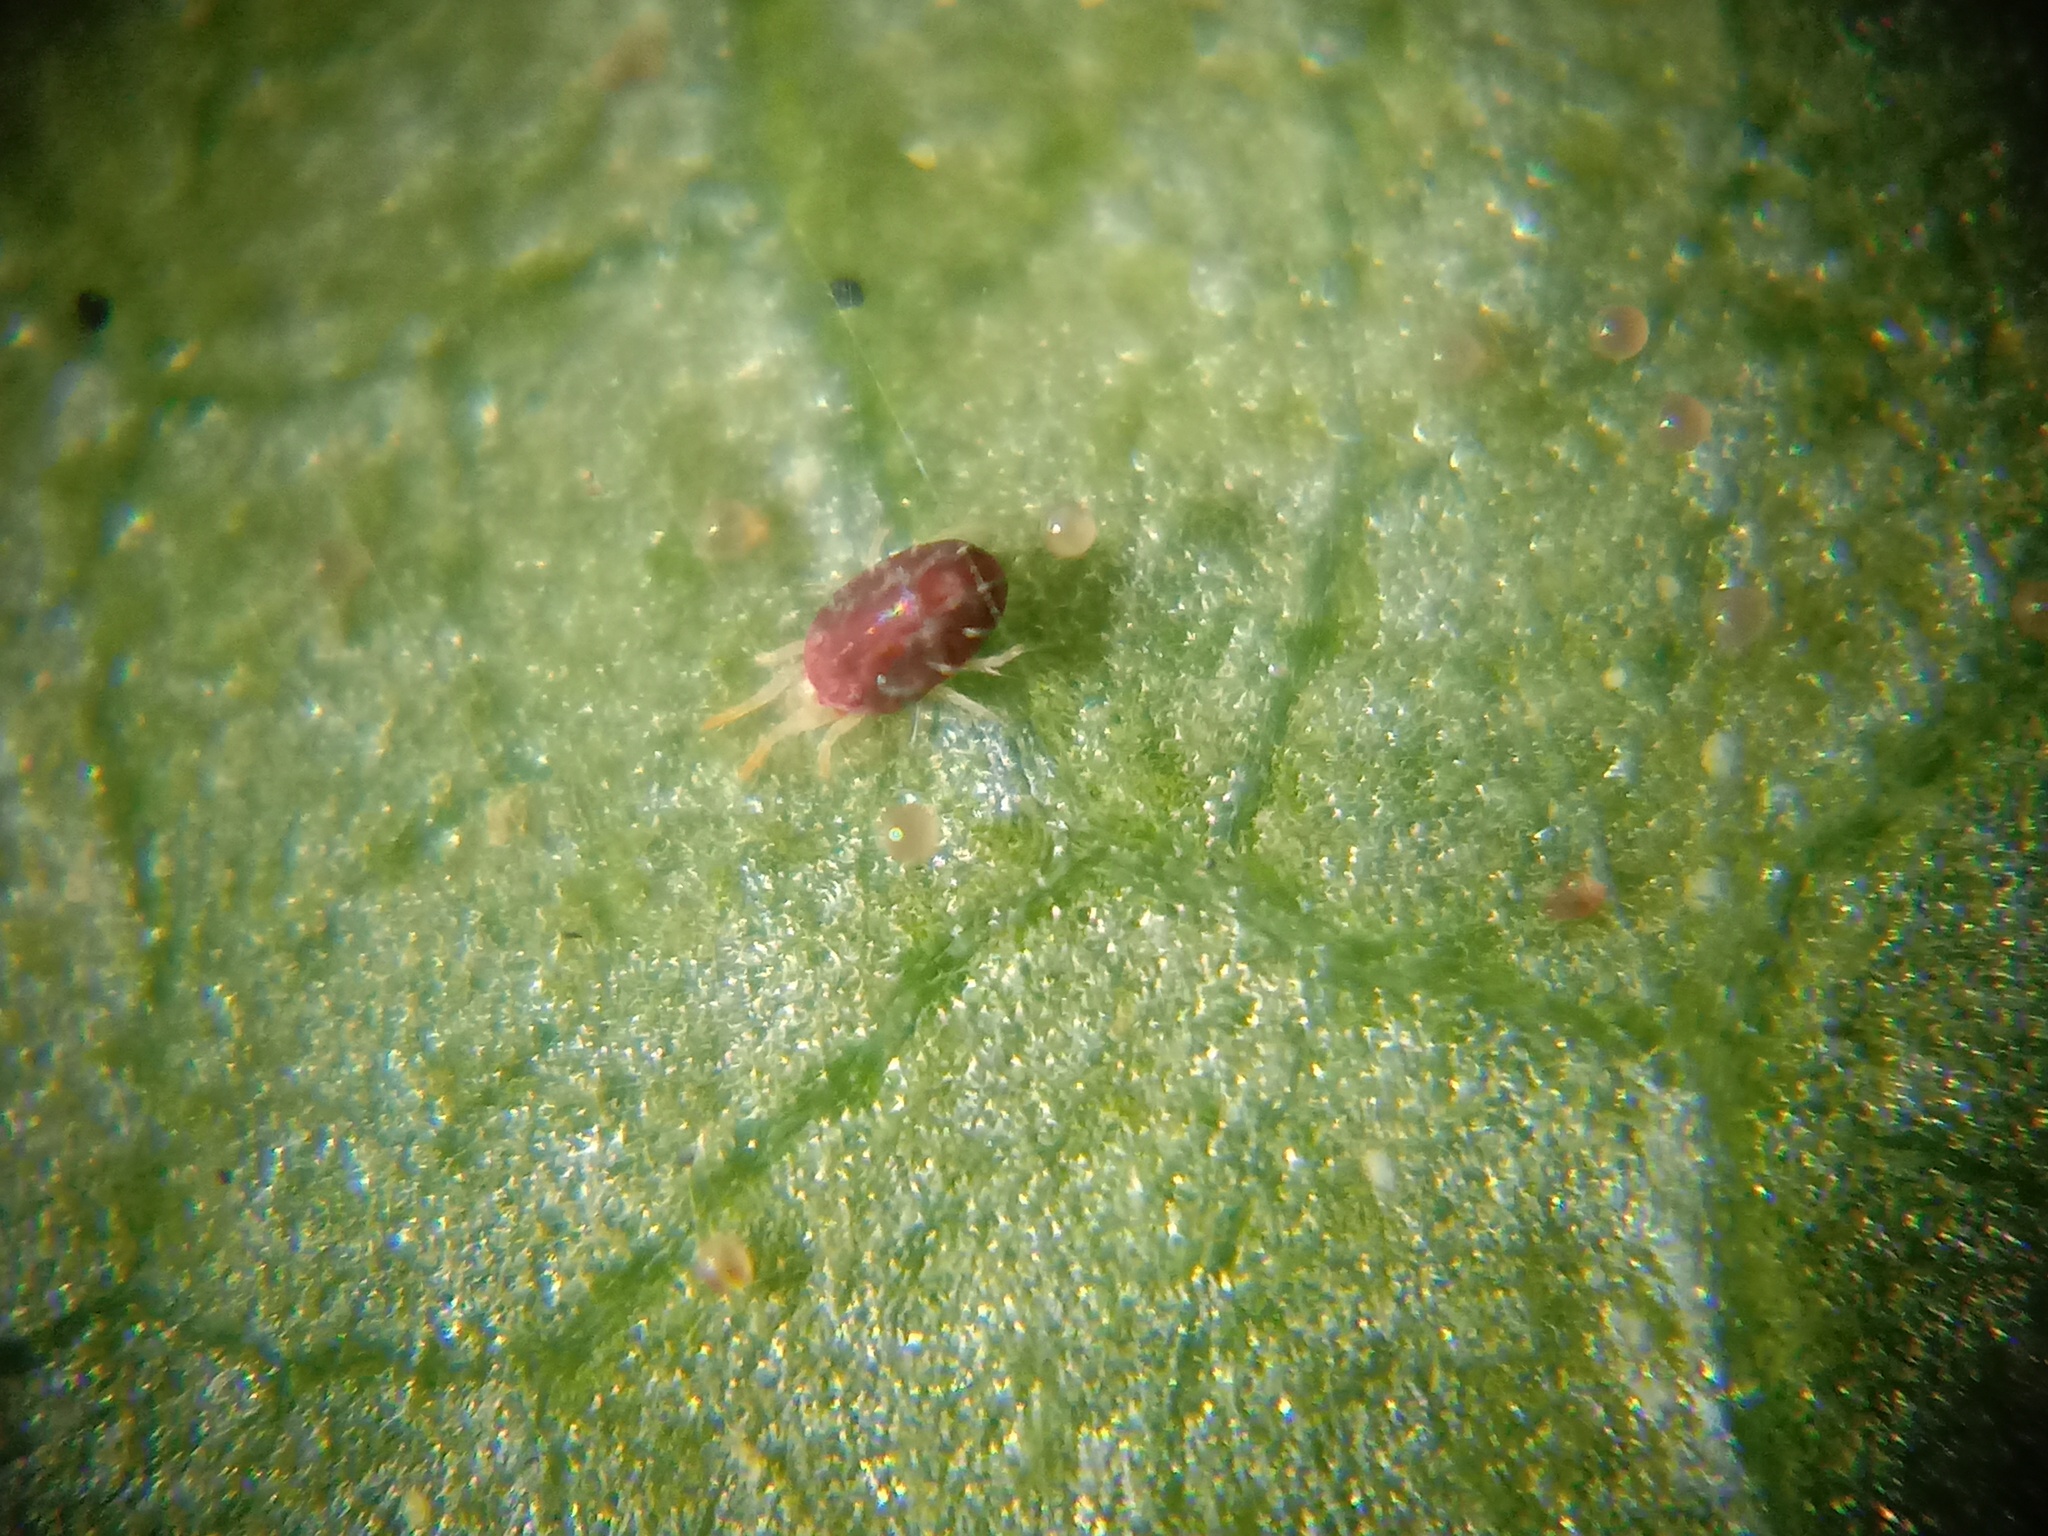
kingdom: Animalia
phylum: Arthropoda
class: Arachnida
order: Trombidiformes
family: Tetranychidae
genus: Tetranychus
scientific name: Tetranychus urticae
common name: Carmine spider mite
